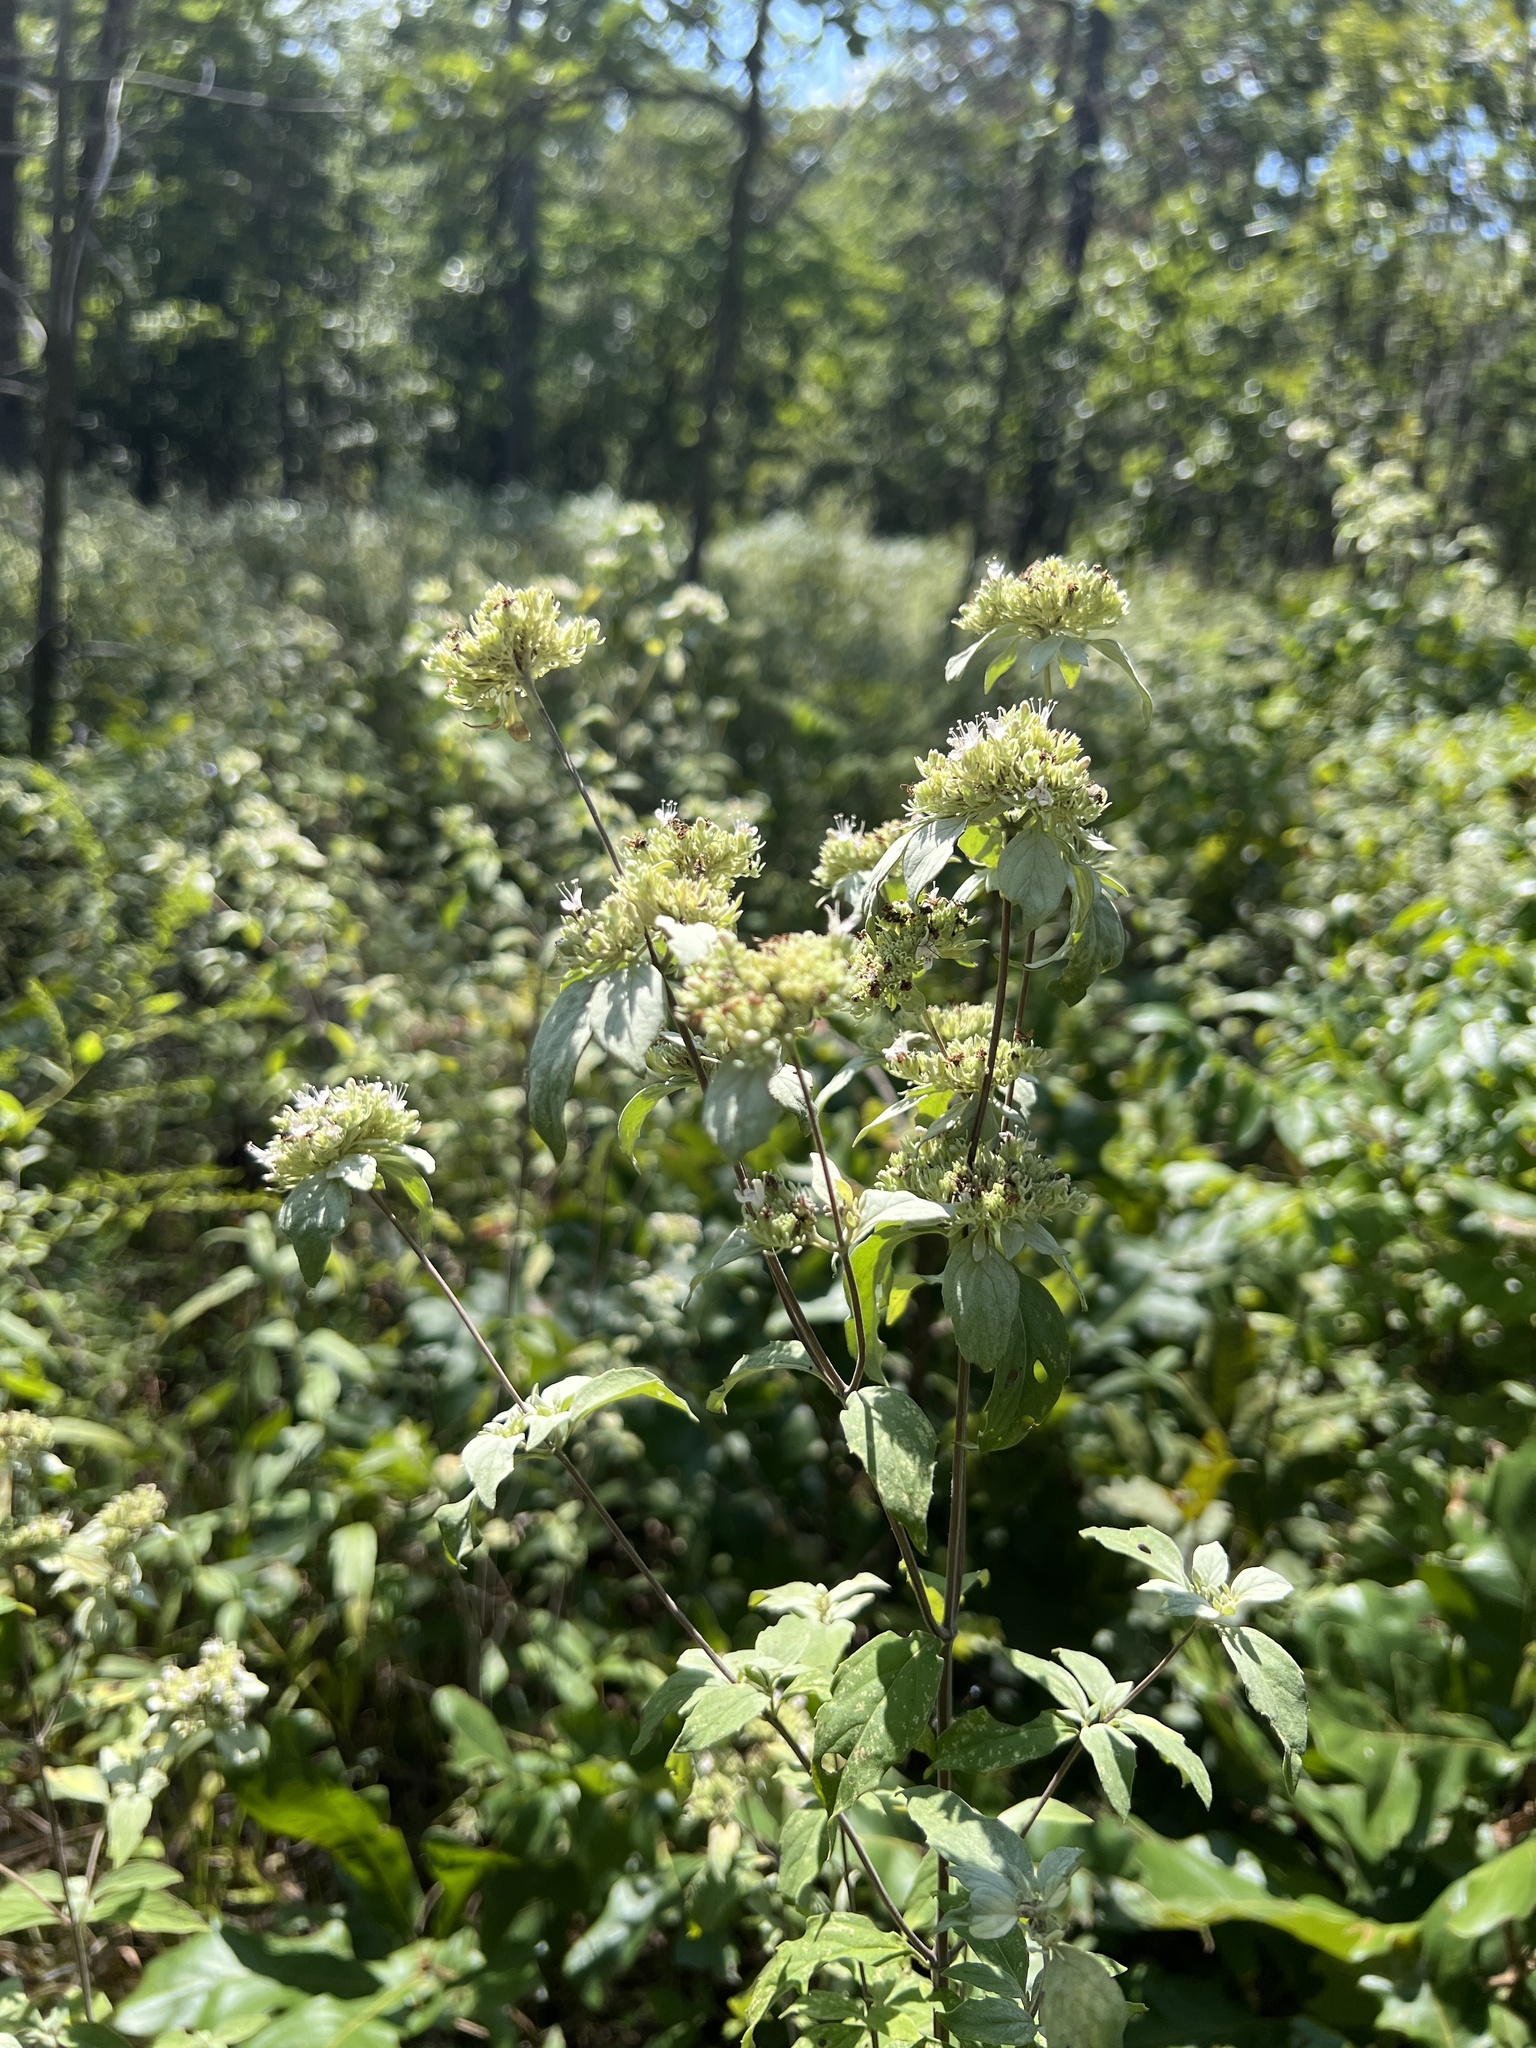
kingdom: Plantae
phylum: Tracheophyta
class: Magnoliopsida
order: Lamiales
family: Lamiaceae
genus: Pycnanthemum
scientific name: Pycnanthemum albescens
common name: White-leaf mountain-mint
